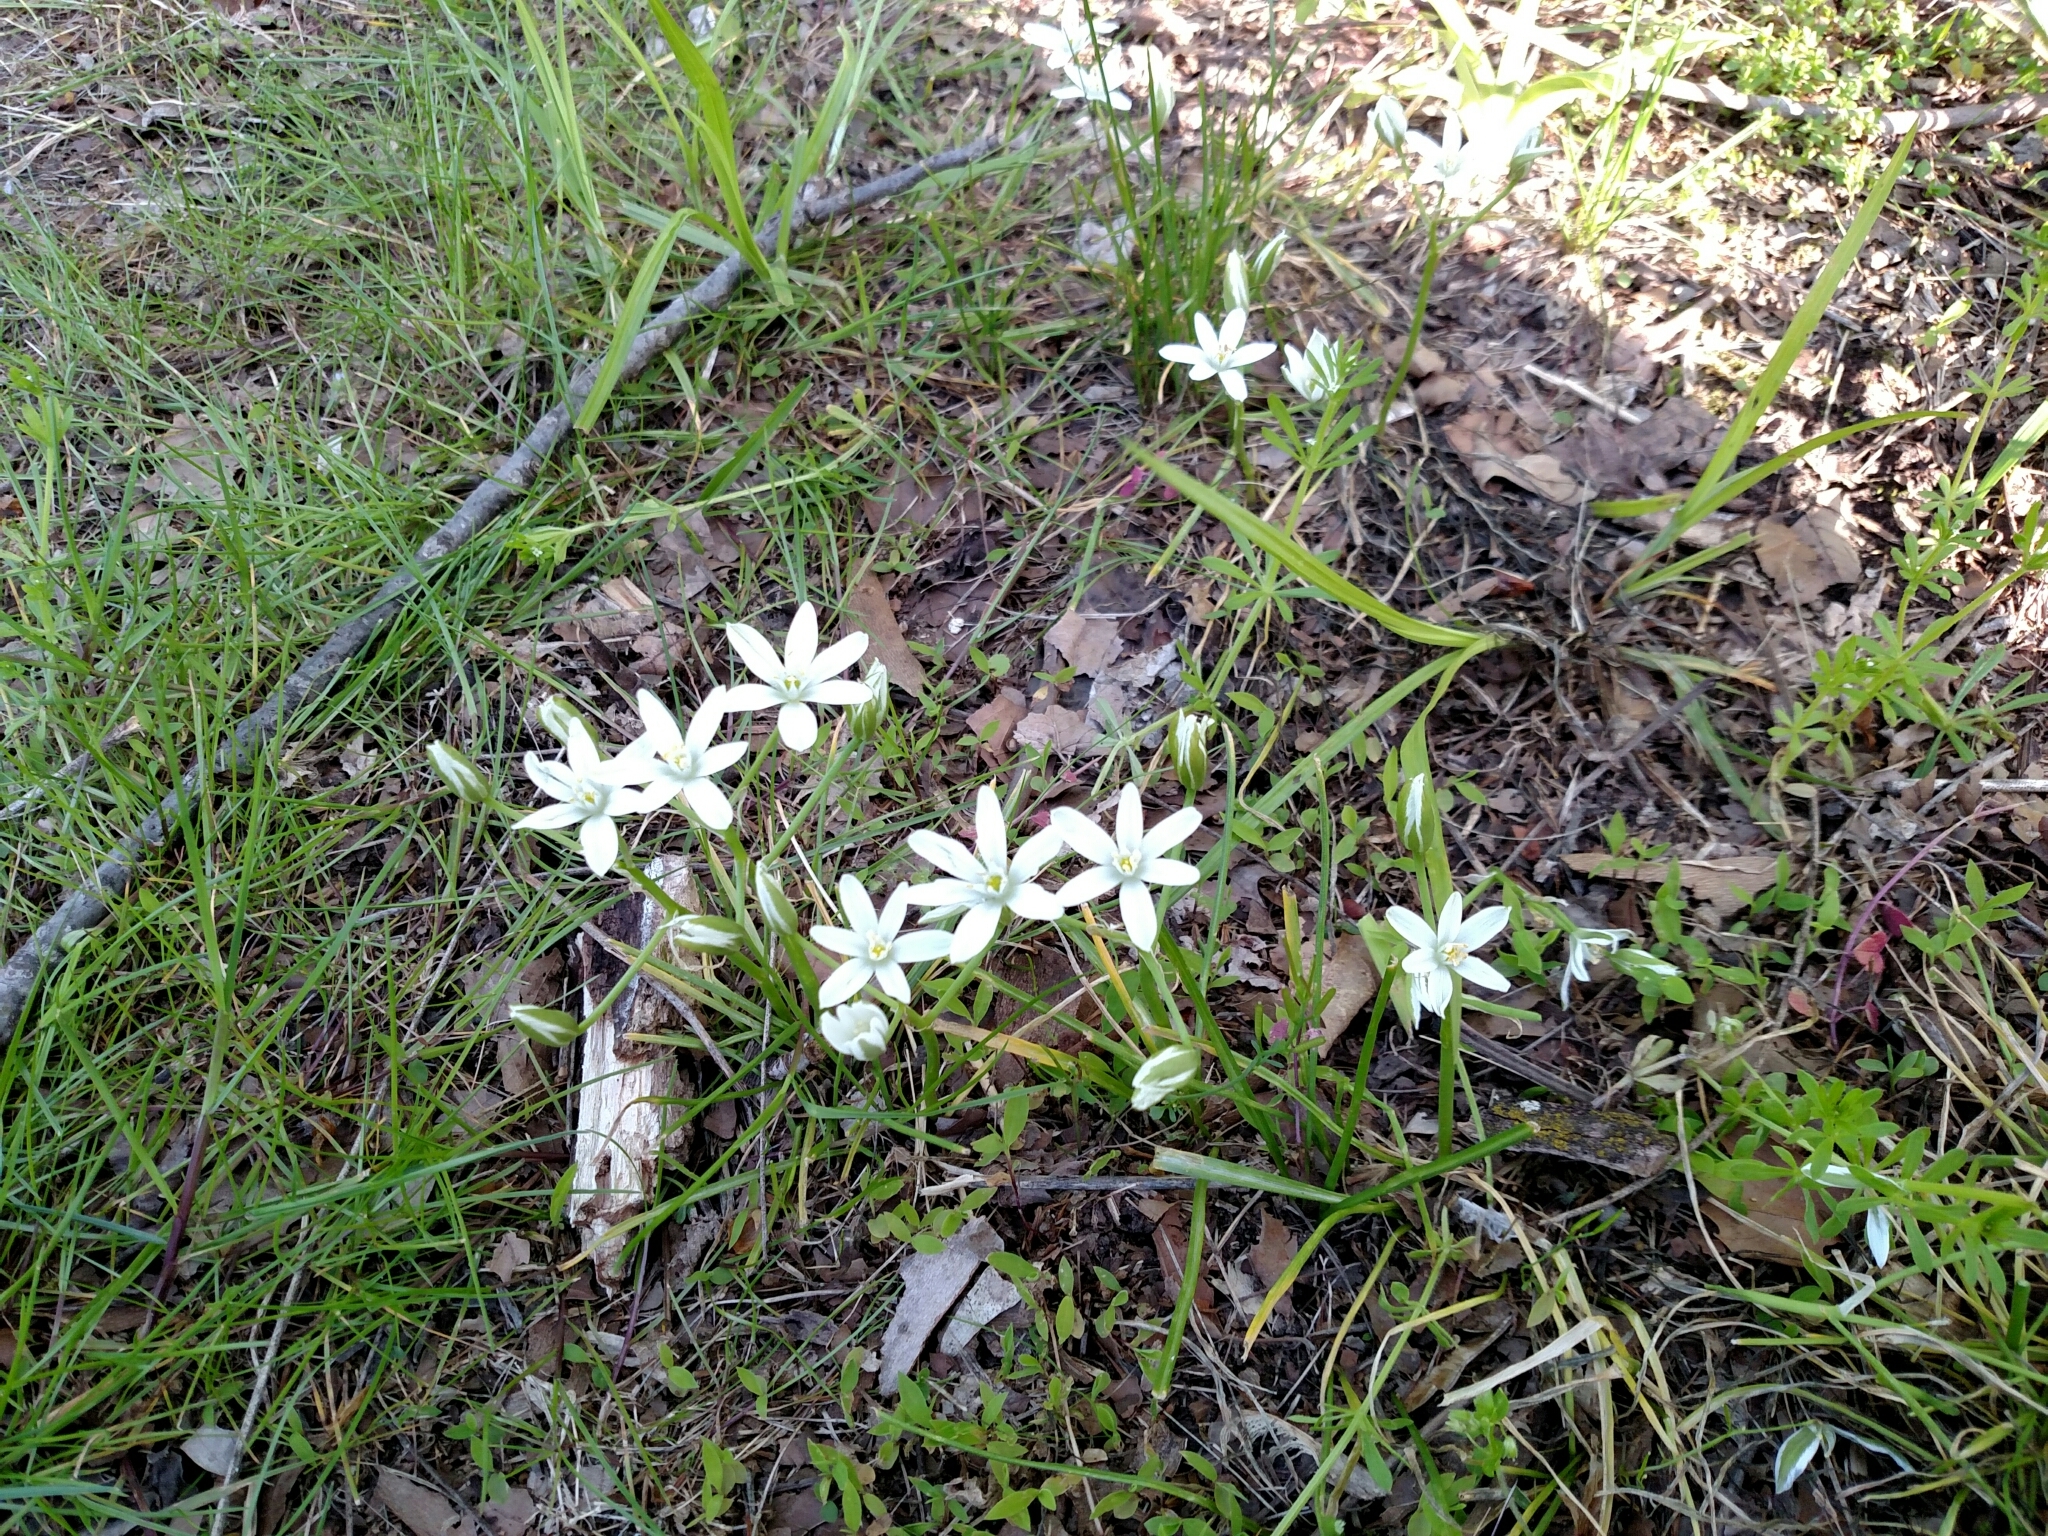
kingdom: Plantae
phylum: Tracheophyta
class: Liliopsida
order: Asparagales
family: Asparagaceae
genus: Ornithogalum
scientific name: Ornithogalum umbellatum
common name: Garden star-of-bethlehem
